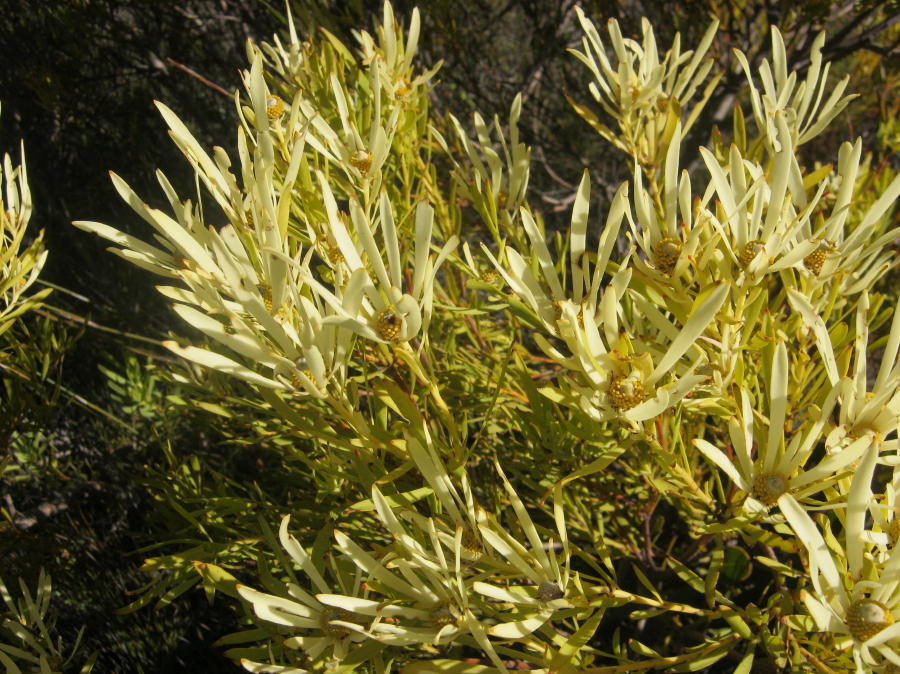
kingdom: Plantae
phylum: Tracheophyta
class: Magnoliopsida
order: Proteales
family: Proteaceae
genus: Leucadendron
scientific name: Leucadendron salignum
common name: Common sunshine conebush
